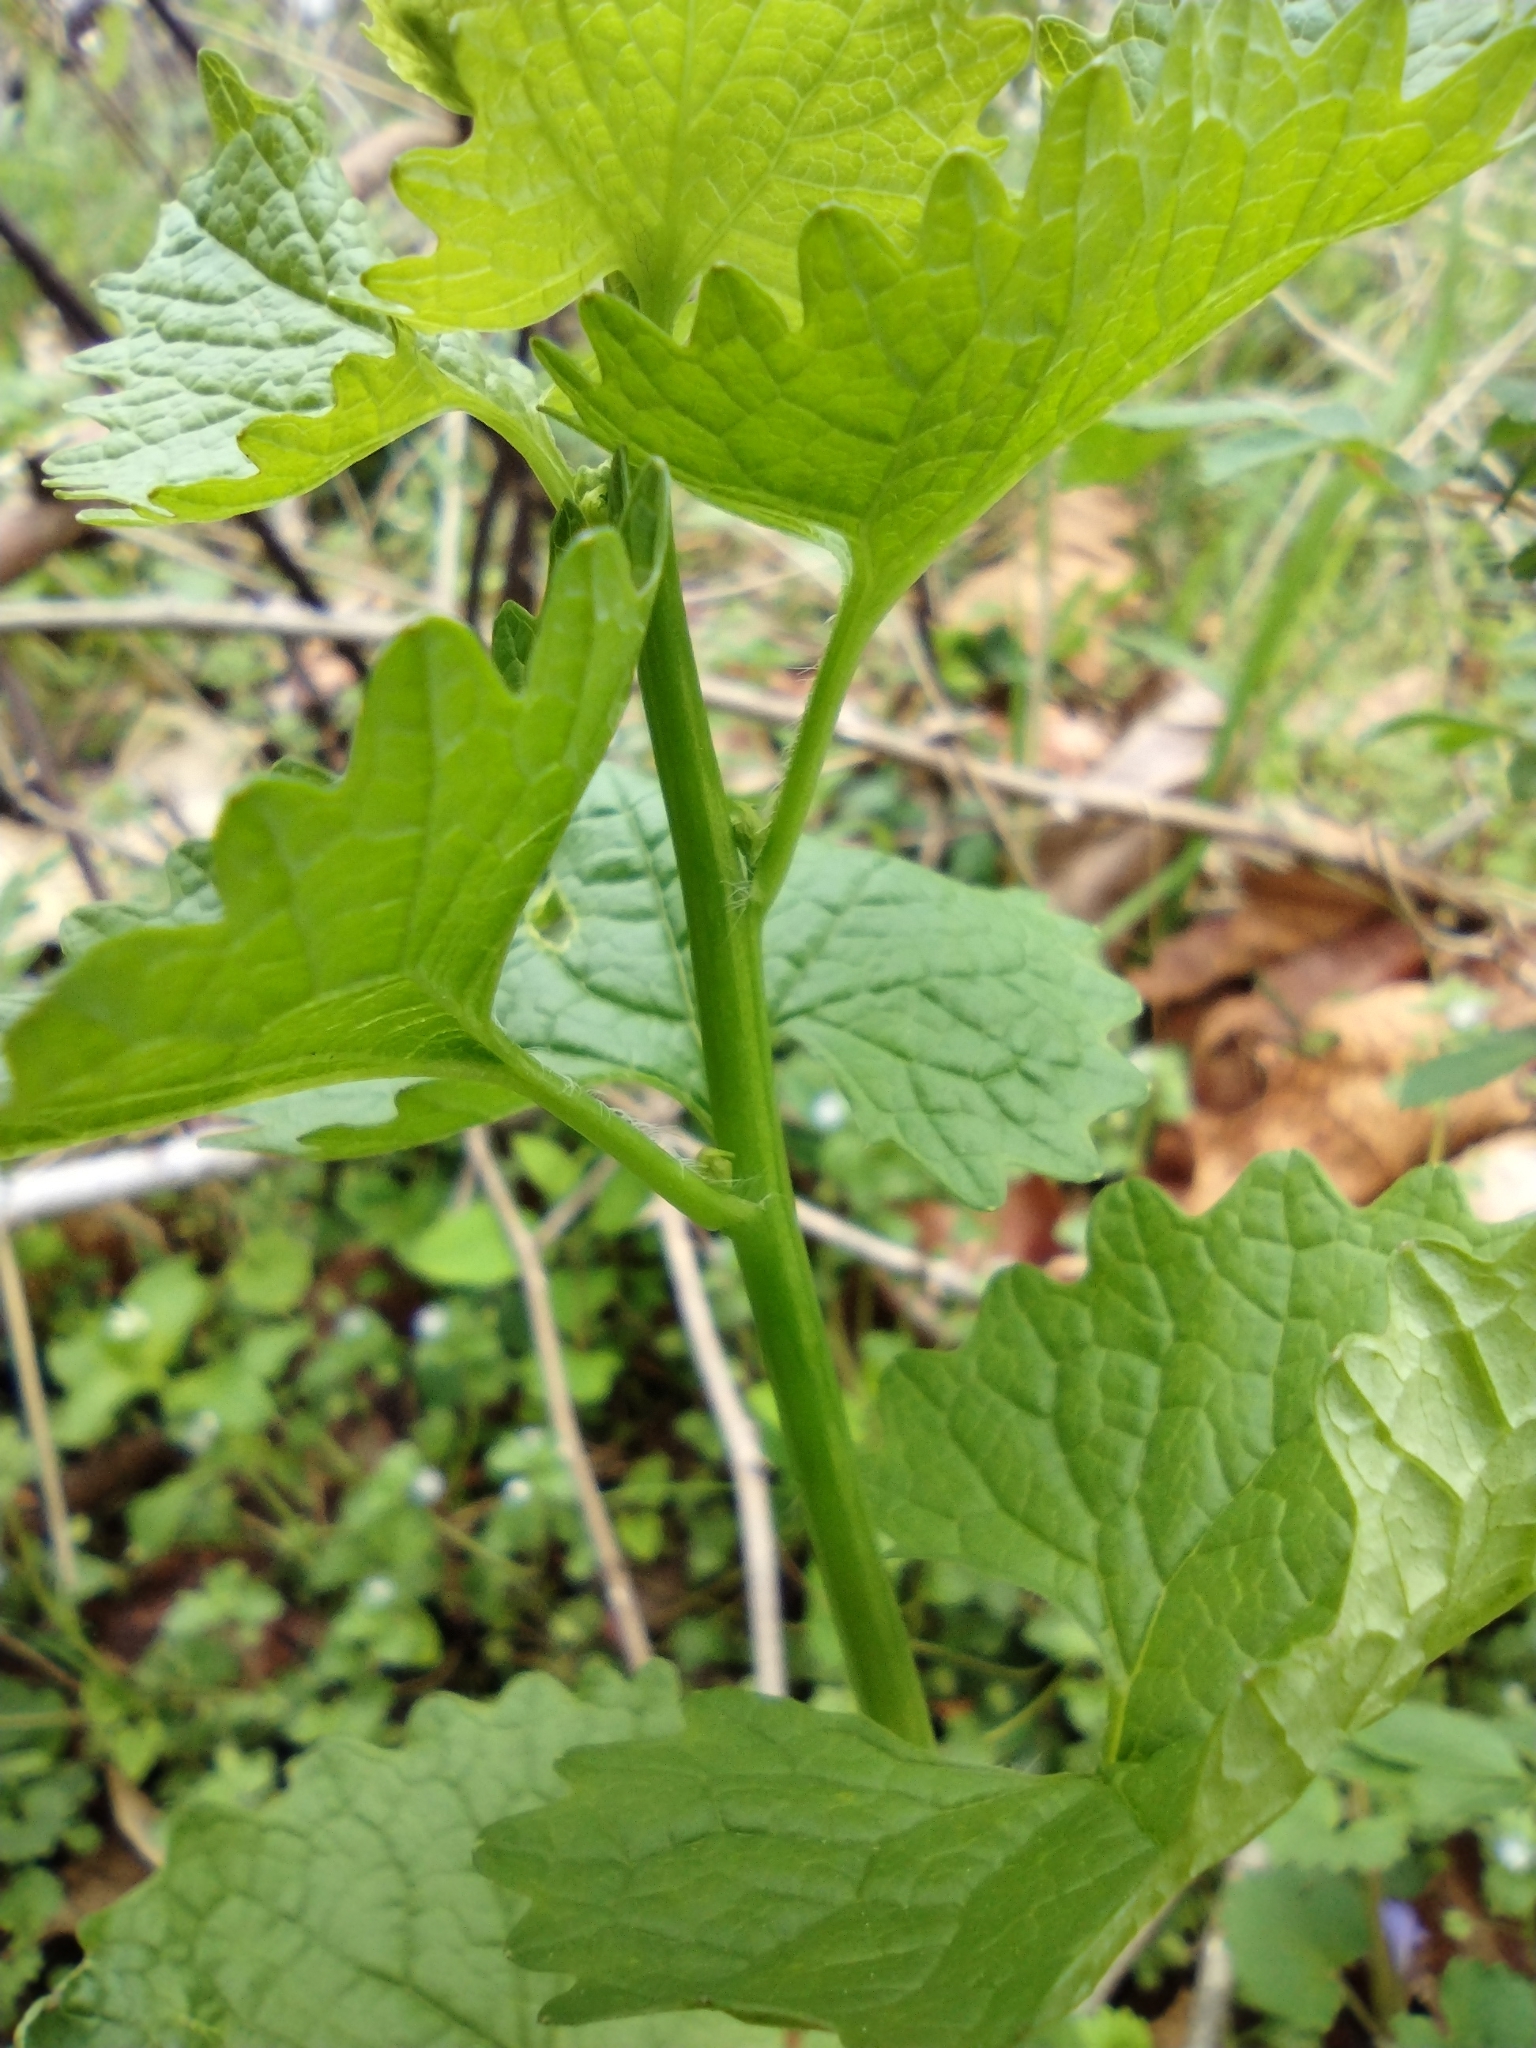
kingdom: Plantae
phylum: Tracheophyta
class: Magnoliopsida
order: Brassicales
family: Brassicaceae
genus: Alliaria
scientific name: Alliaria petiolata
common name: Garlic mustard
